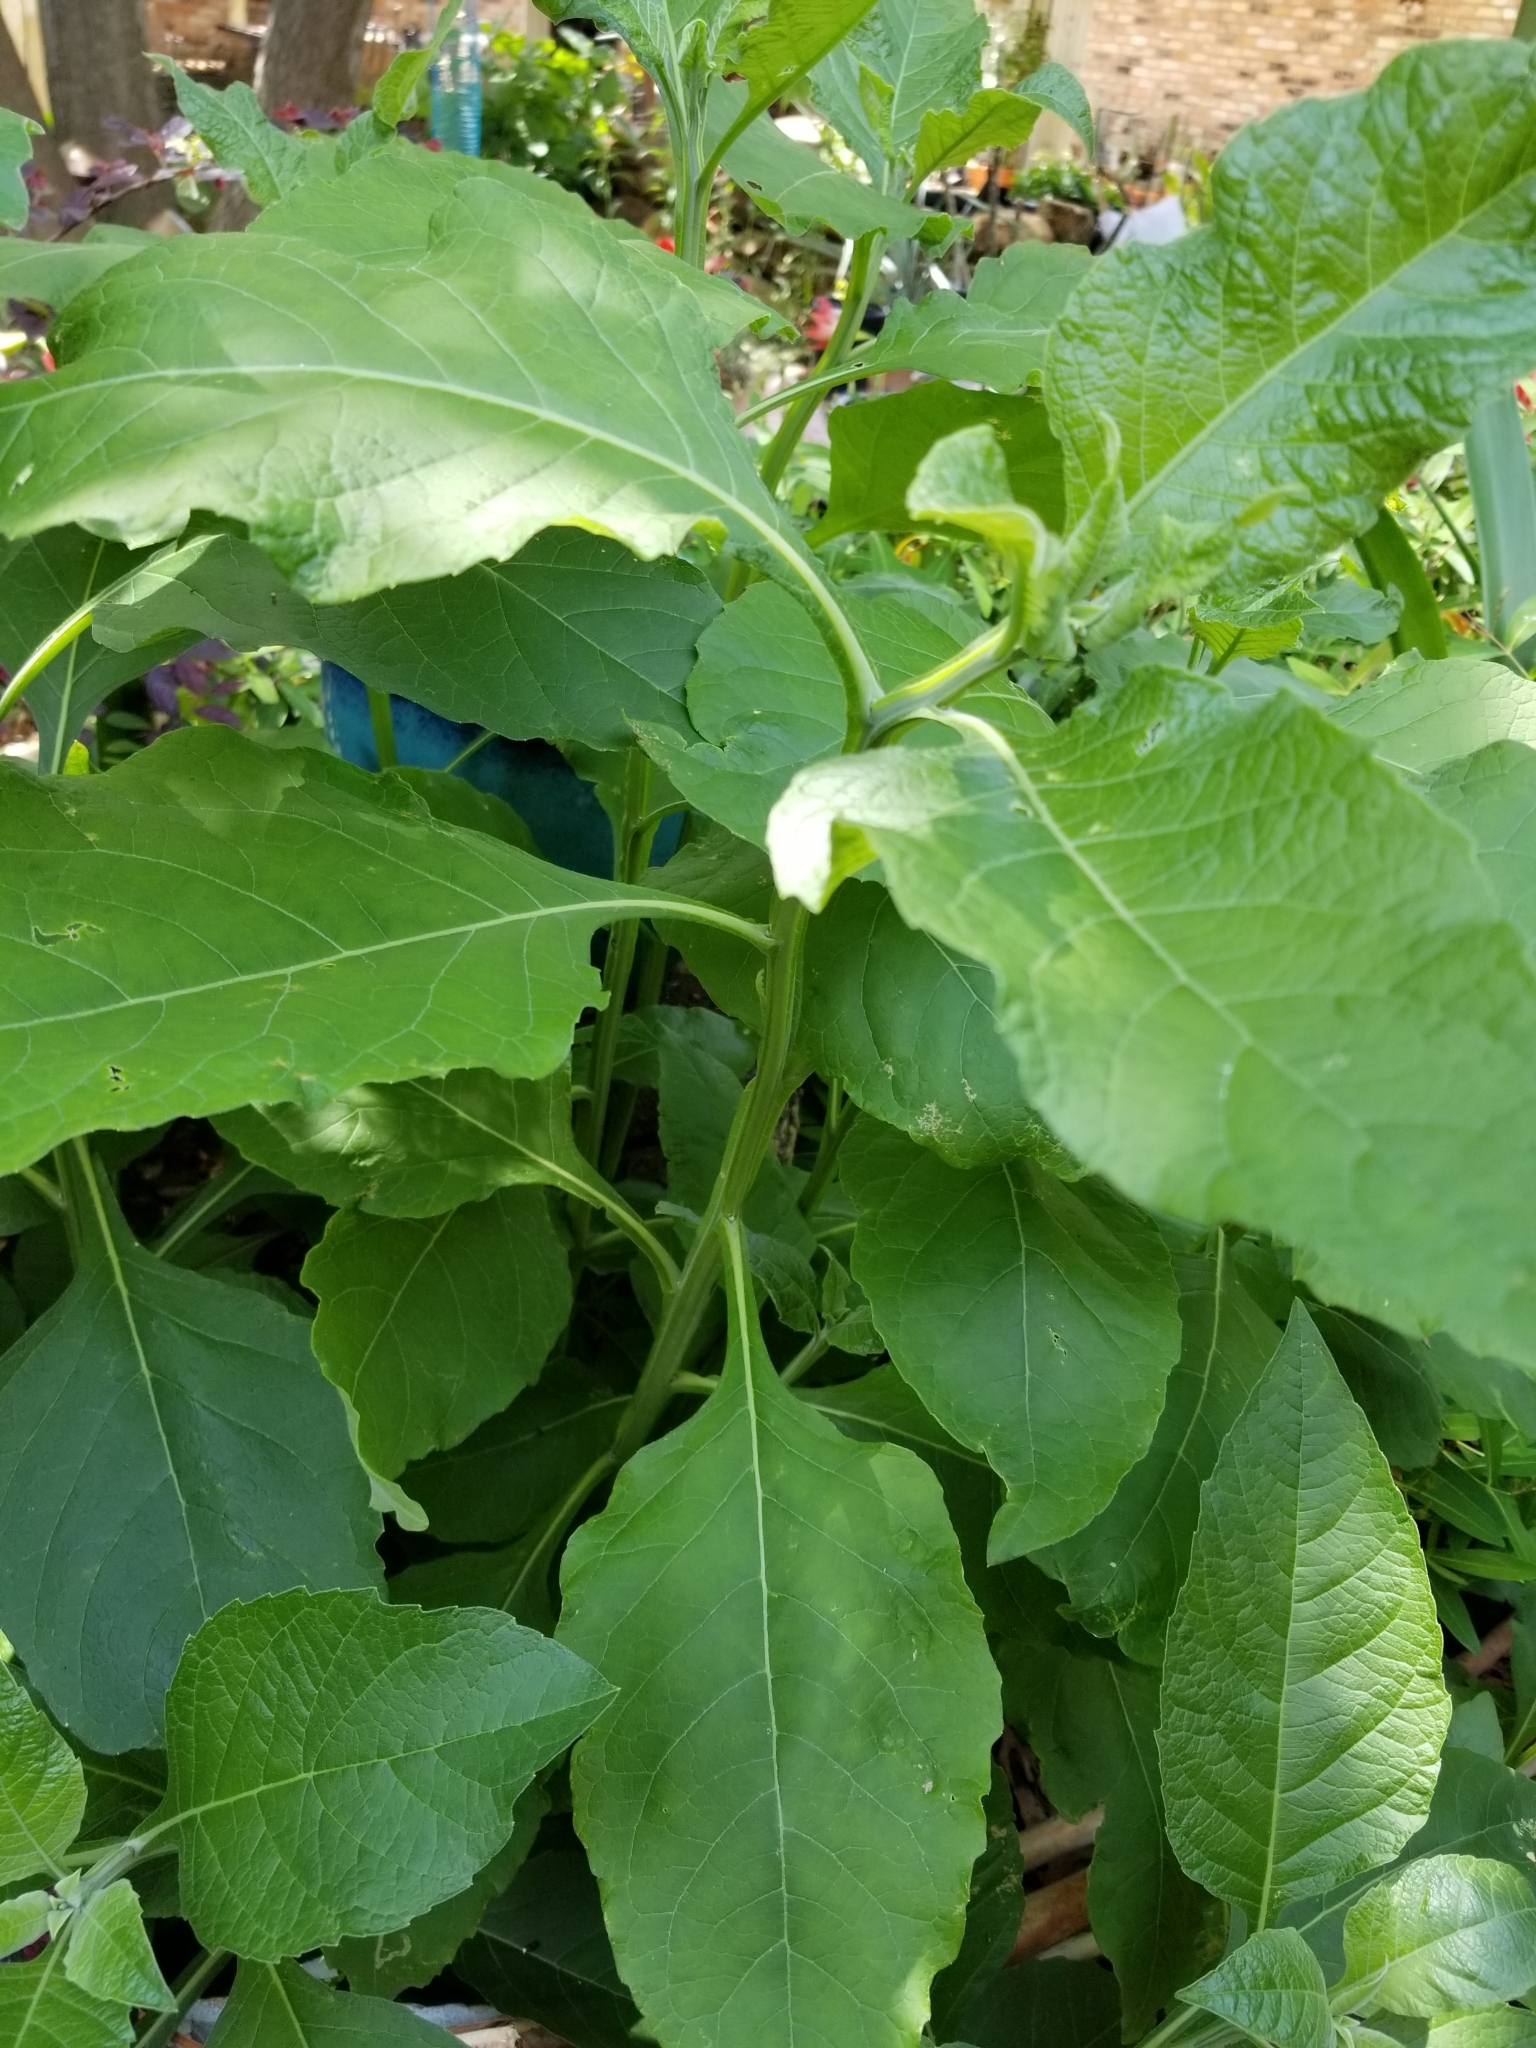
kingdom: Plantae
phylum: Tracheophyta
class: Magnoliopsida
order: Asterales
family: Asteraceae
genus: Verbesina
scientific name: Verbesina virginica
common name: Frostweed
